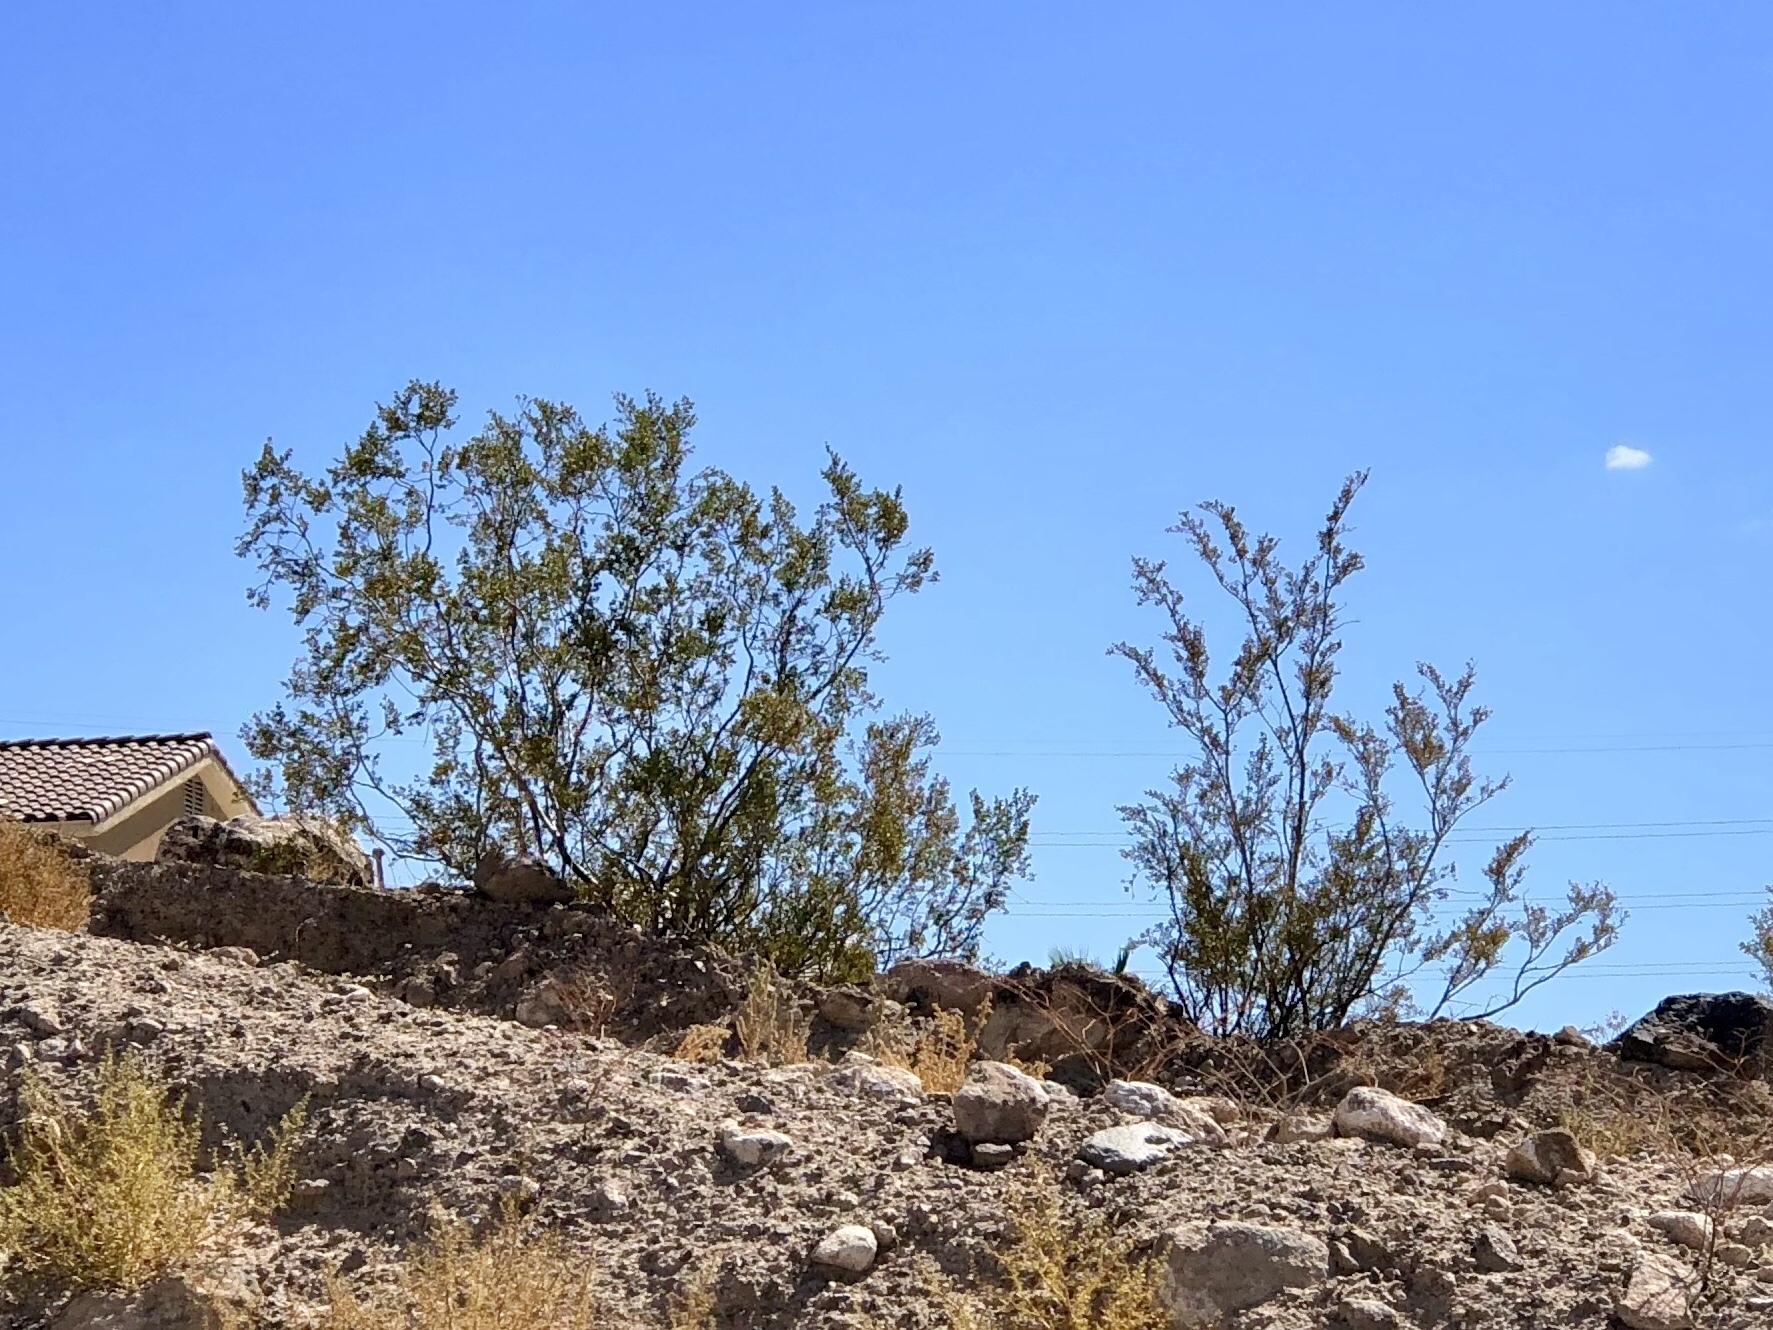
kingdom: Plantae
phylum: Tracheophyta
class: Magnoliopsida
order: Zygophyllales
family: Zygophyllaceae
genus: Larrea
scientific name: Larrea tridentata
